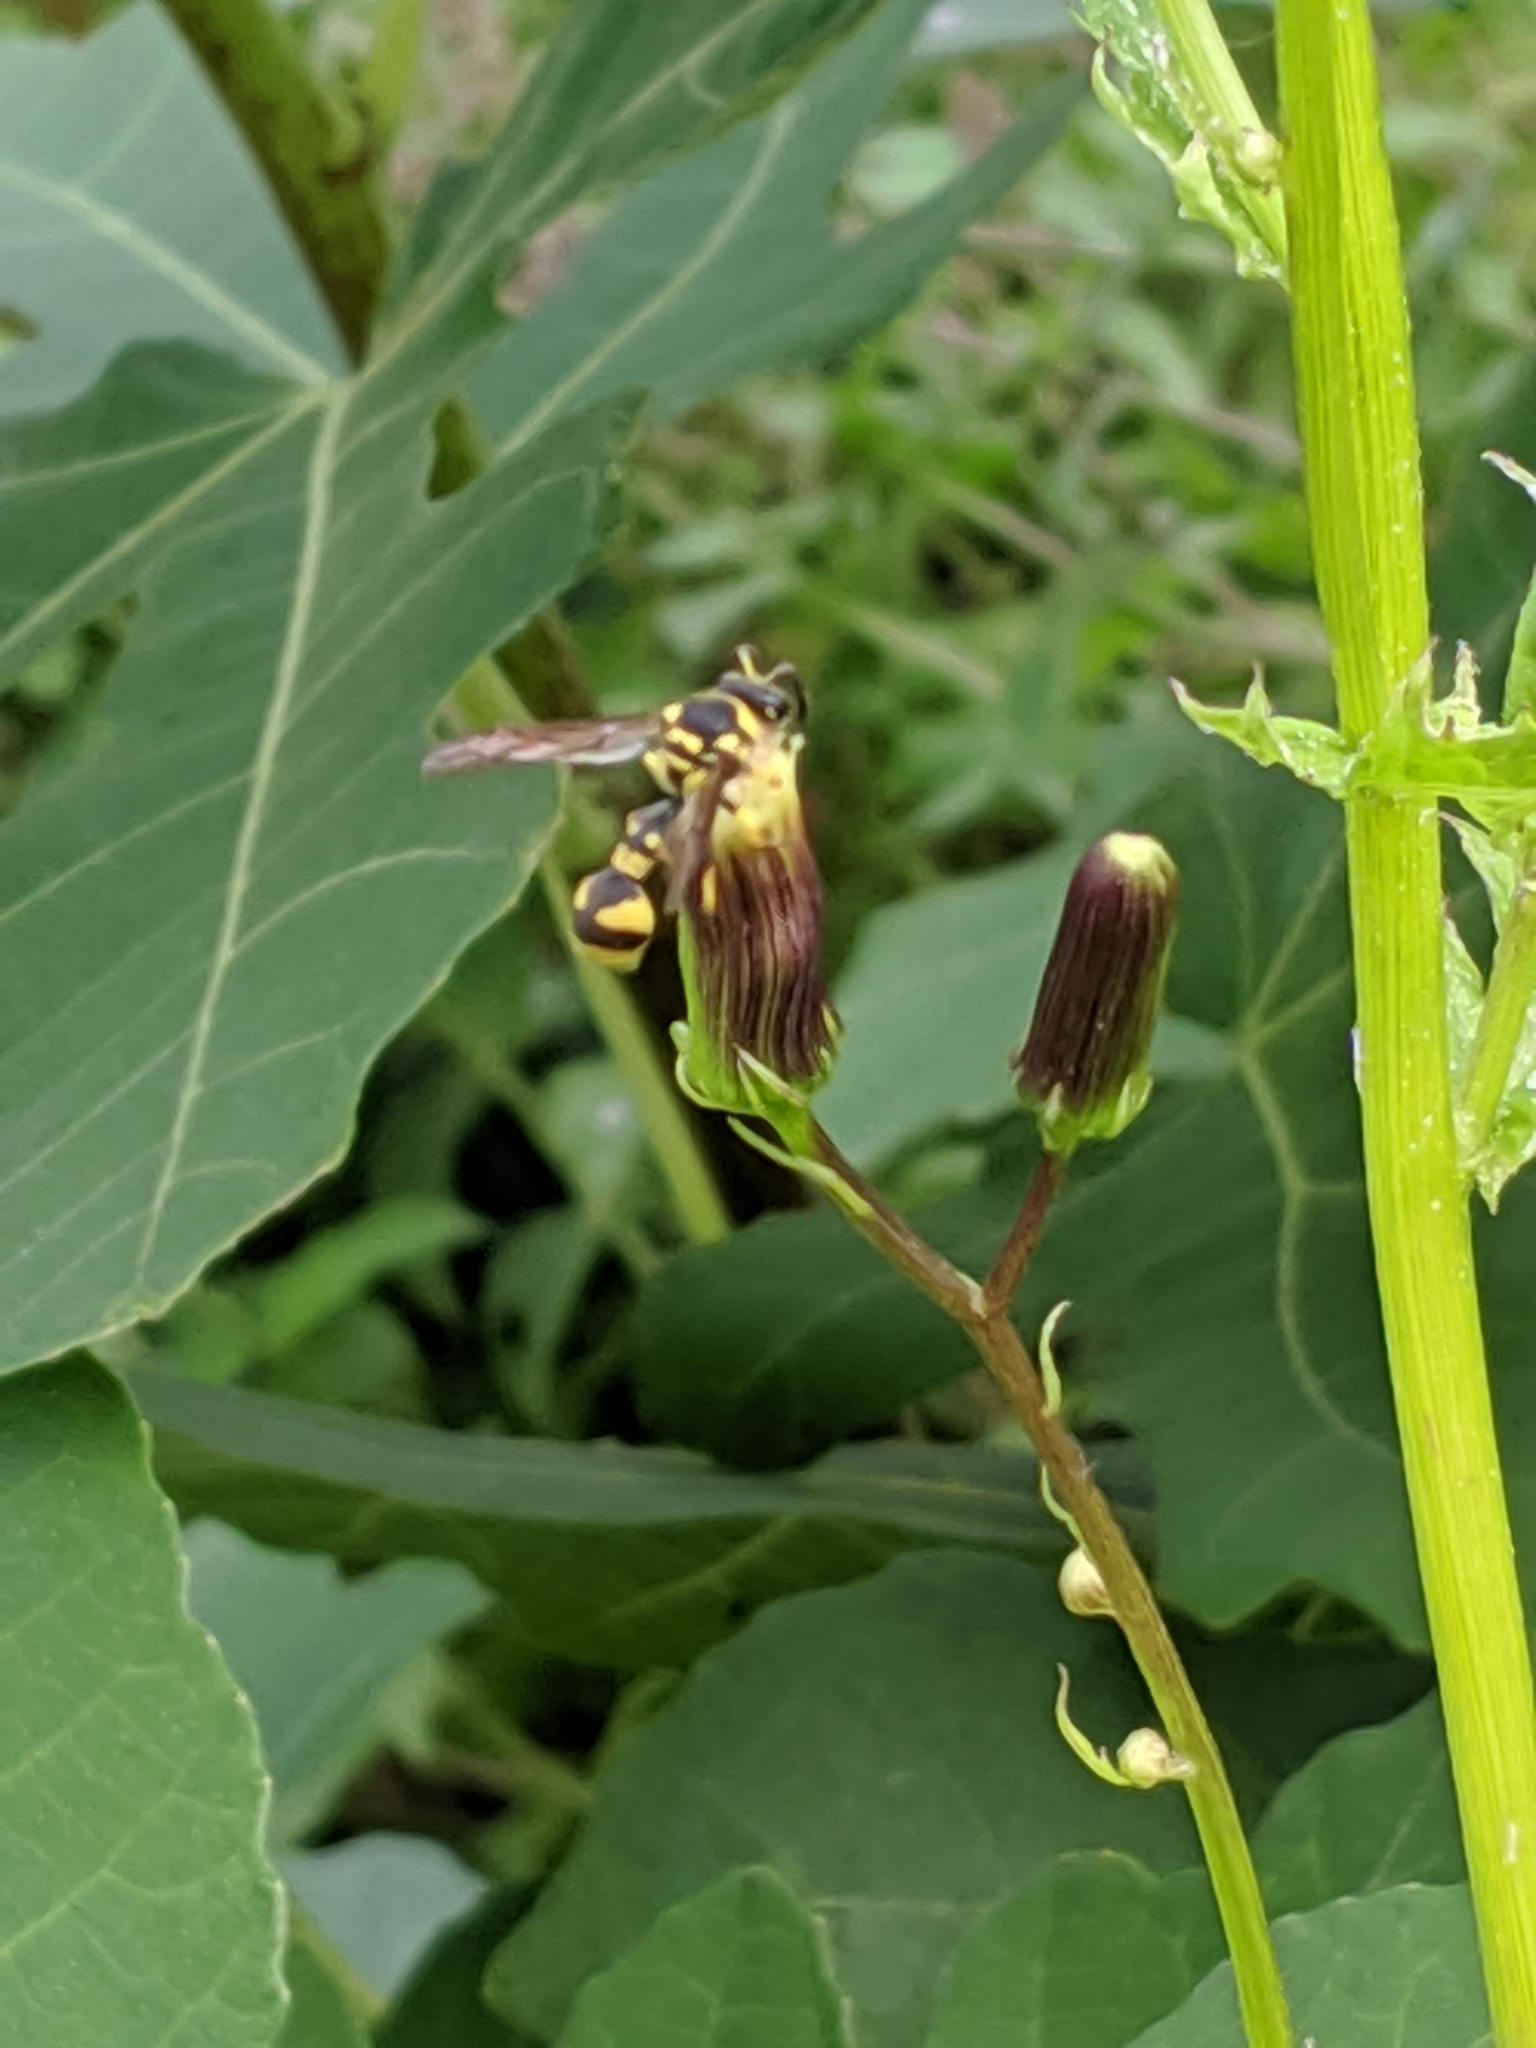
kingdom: Animalia
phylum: Arthropoda
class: Insecta
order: Hymenoptera
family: Vespidae
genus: Eumenes
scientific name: Eumenes mediterraneus
